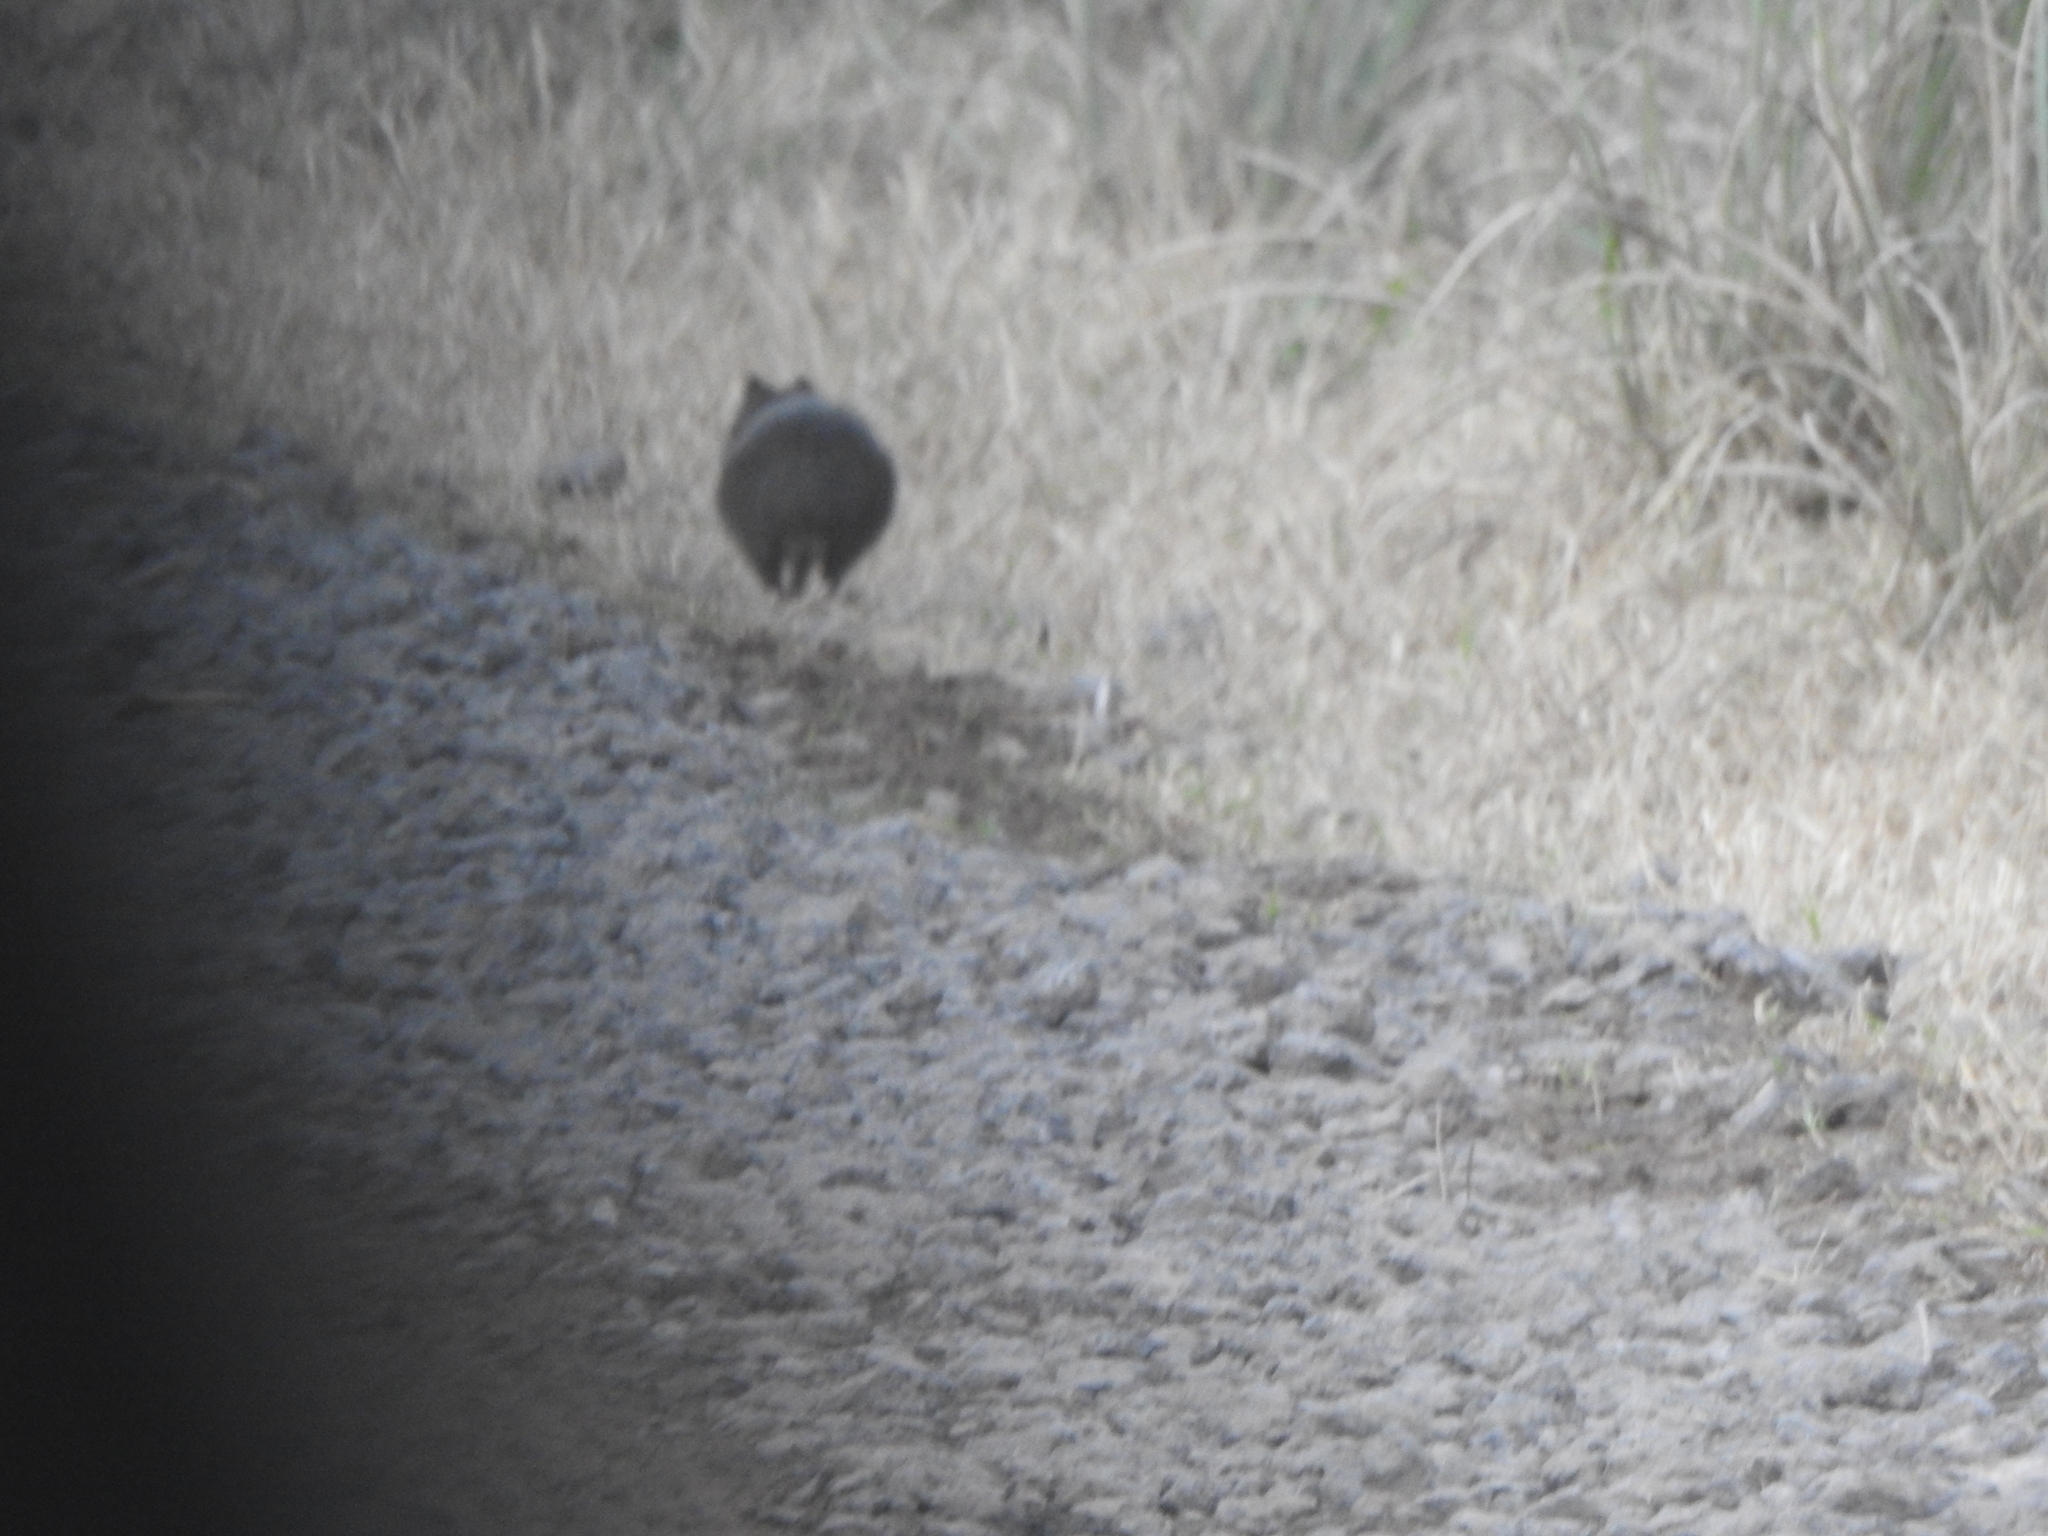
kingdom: Animalia
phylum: Chordata
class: Mammalia
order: Rodentia
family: Caviidae
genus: Cavia
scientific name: Cavia aperea
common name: Brazilian guinea pig
